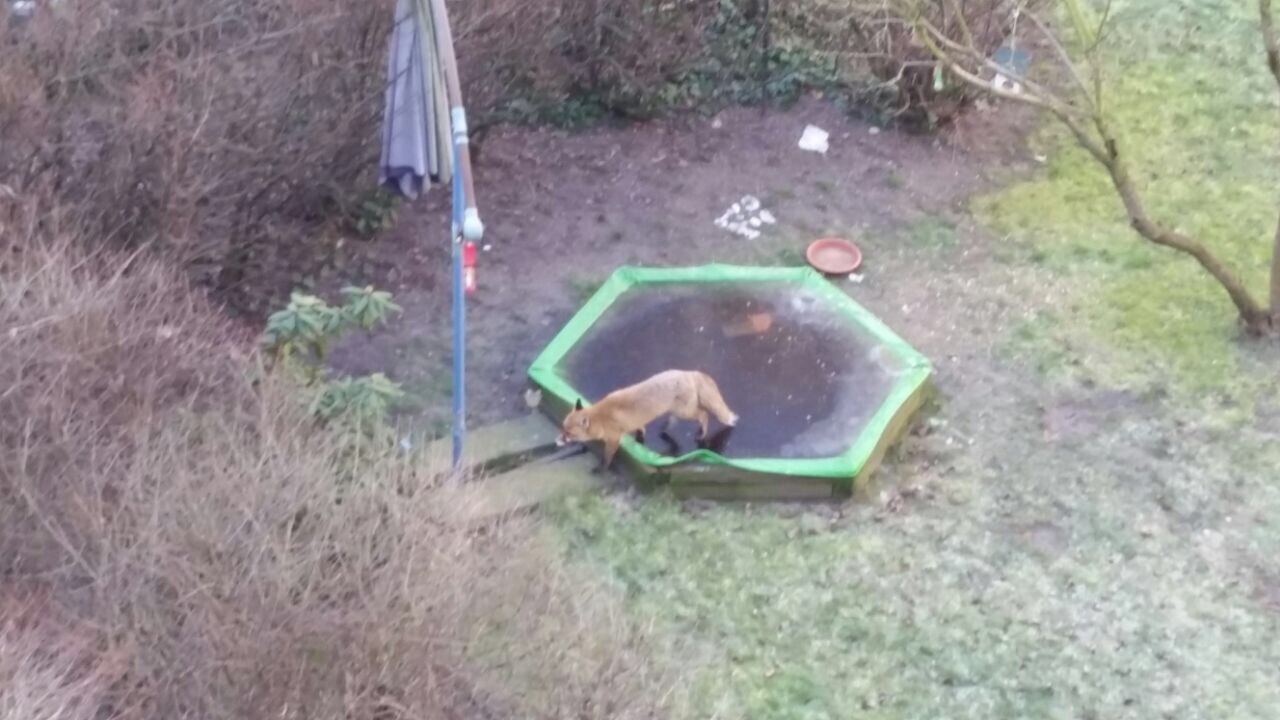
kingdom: Animalia
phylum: Chordata
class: Mammalia
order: Carnivora
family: Canidae
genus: Vulpes
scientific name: Vulpes vulpes
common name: Red fox
